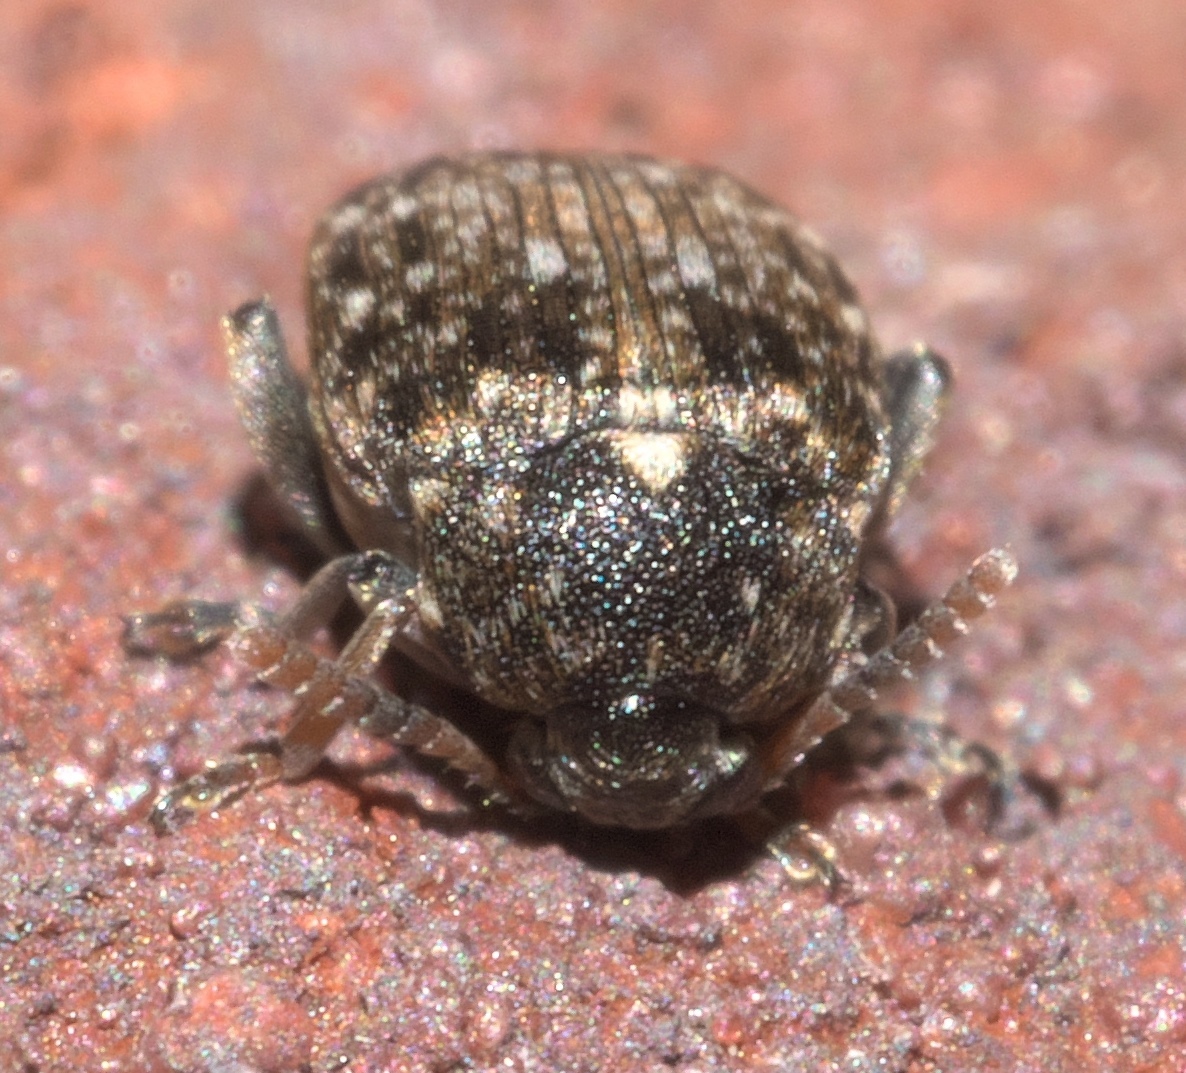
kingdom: Animalia
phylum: Arthropoda
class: Insecta
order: Coleoptera
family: Chrysomelidae
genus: Bruchus
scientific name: Bruchus brachialis
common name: Vetch bruchid
